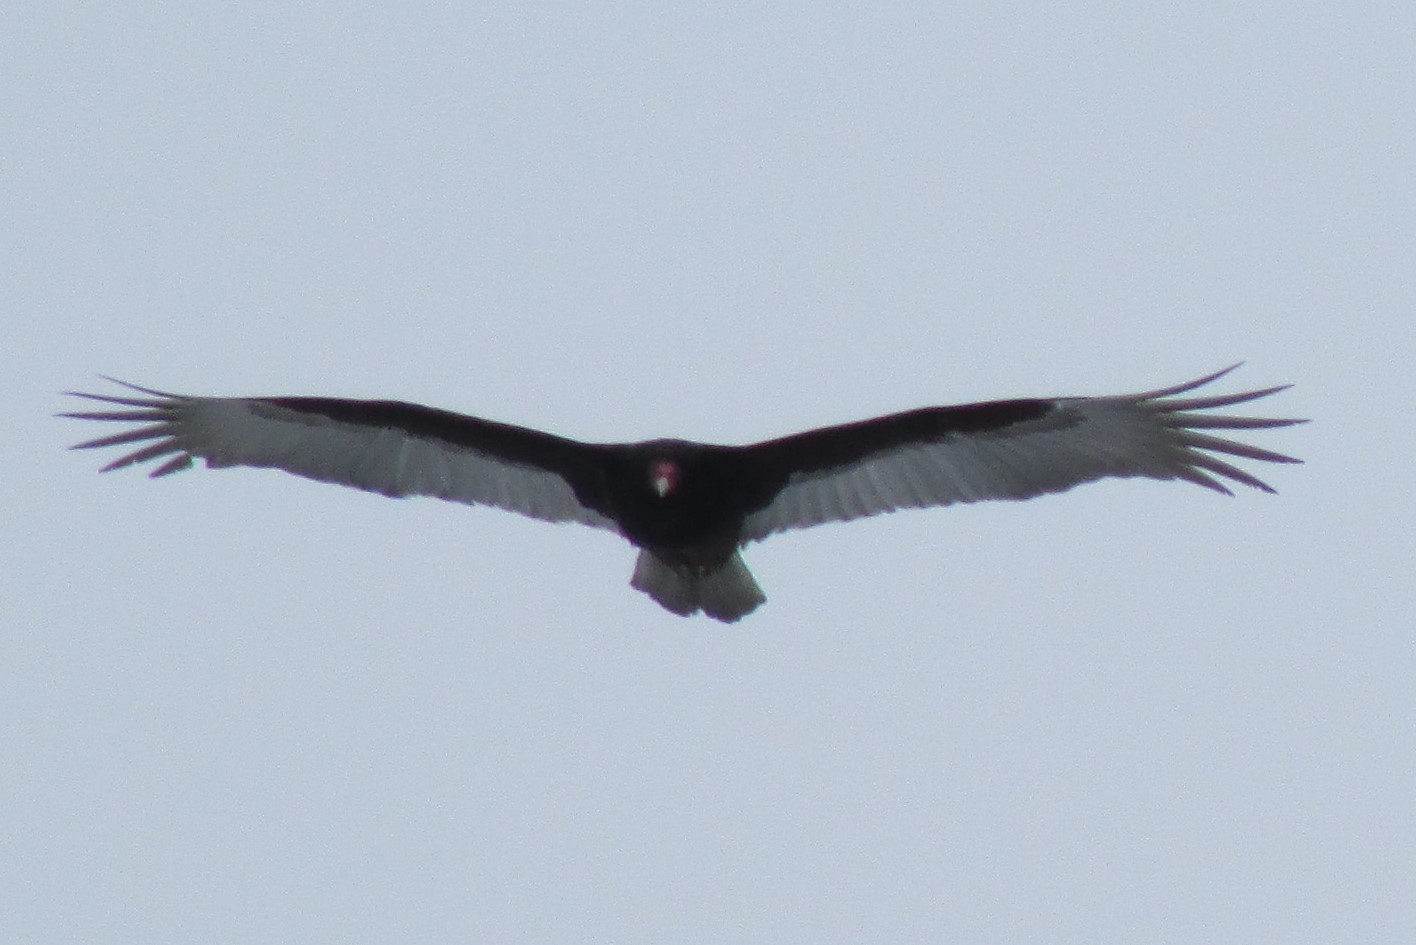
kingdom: Animalia
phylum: Chordata
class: Aves
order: Accipitriformes
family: Cathartidae
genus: Cathartes
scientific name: Cathartes aura
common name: Turkey vulture
